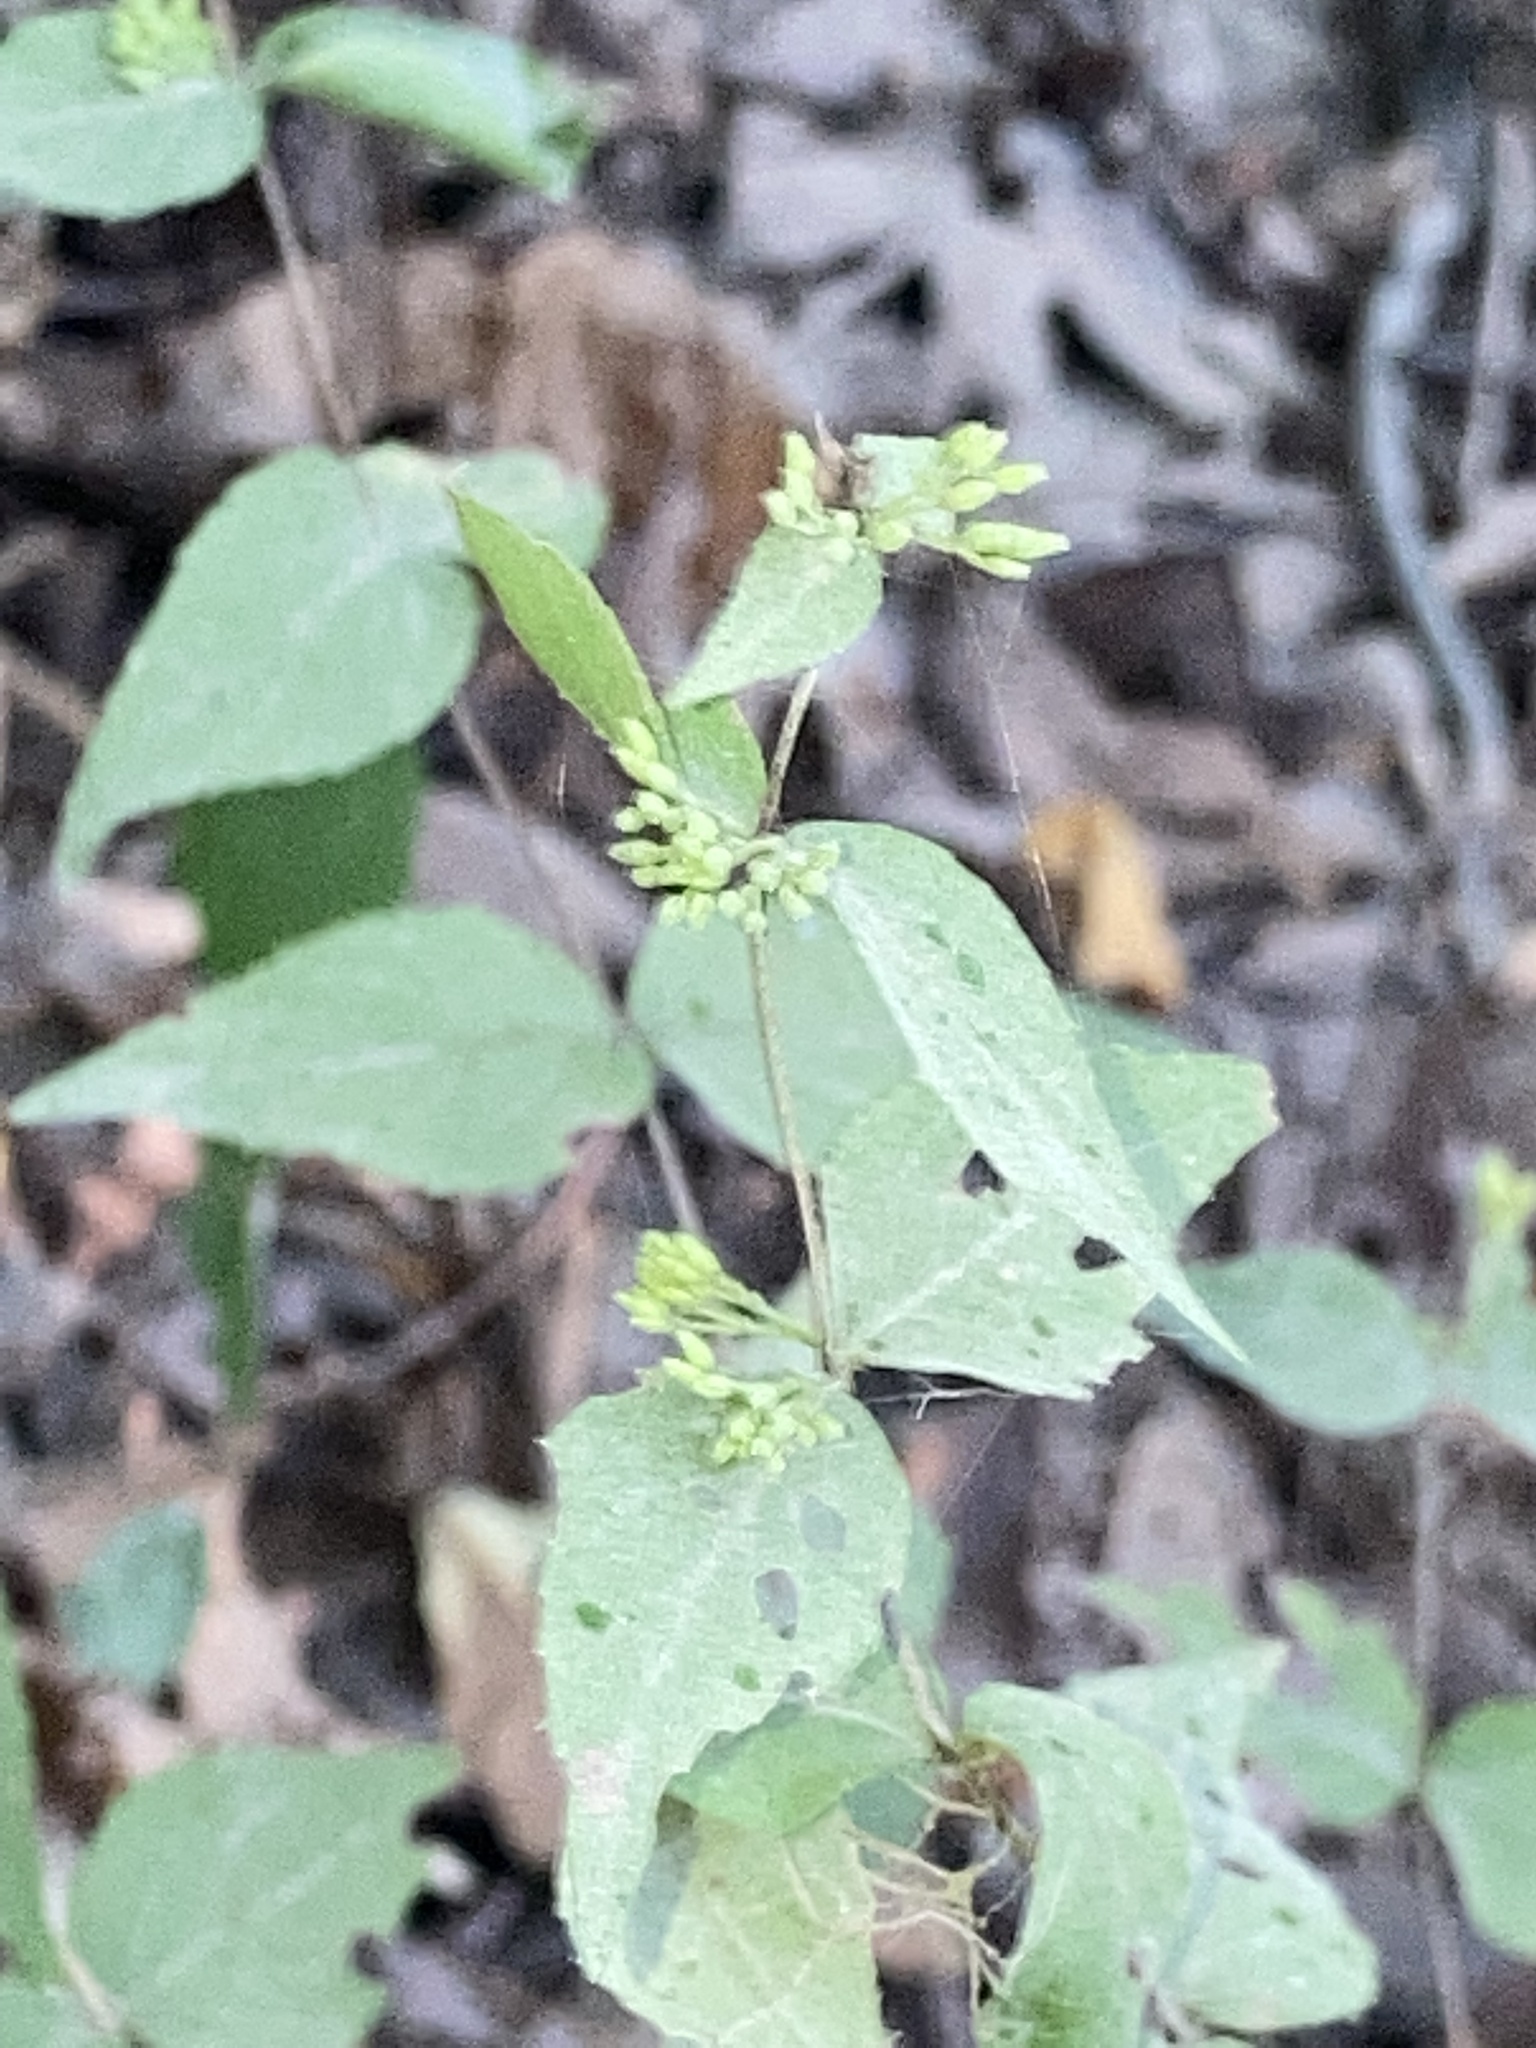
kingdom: Plantae
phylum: Tracheophyta
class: Magnoliopsida
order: Lamiales
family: Lamiaceae
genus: Cunila
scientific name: Cunila origanoides
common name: American dittany
